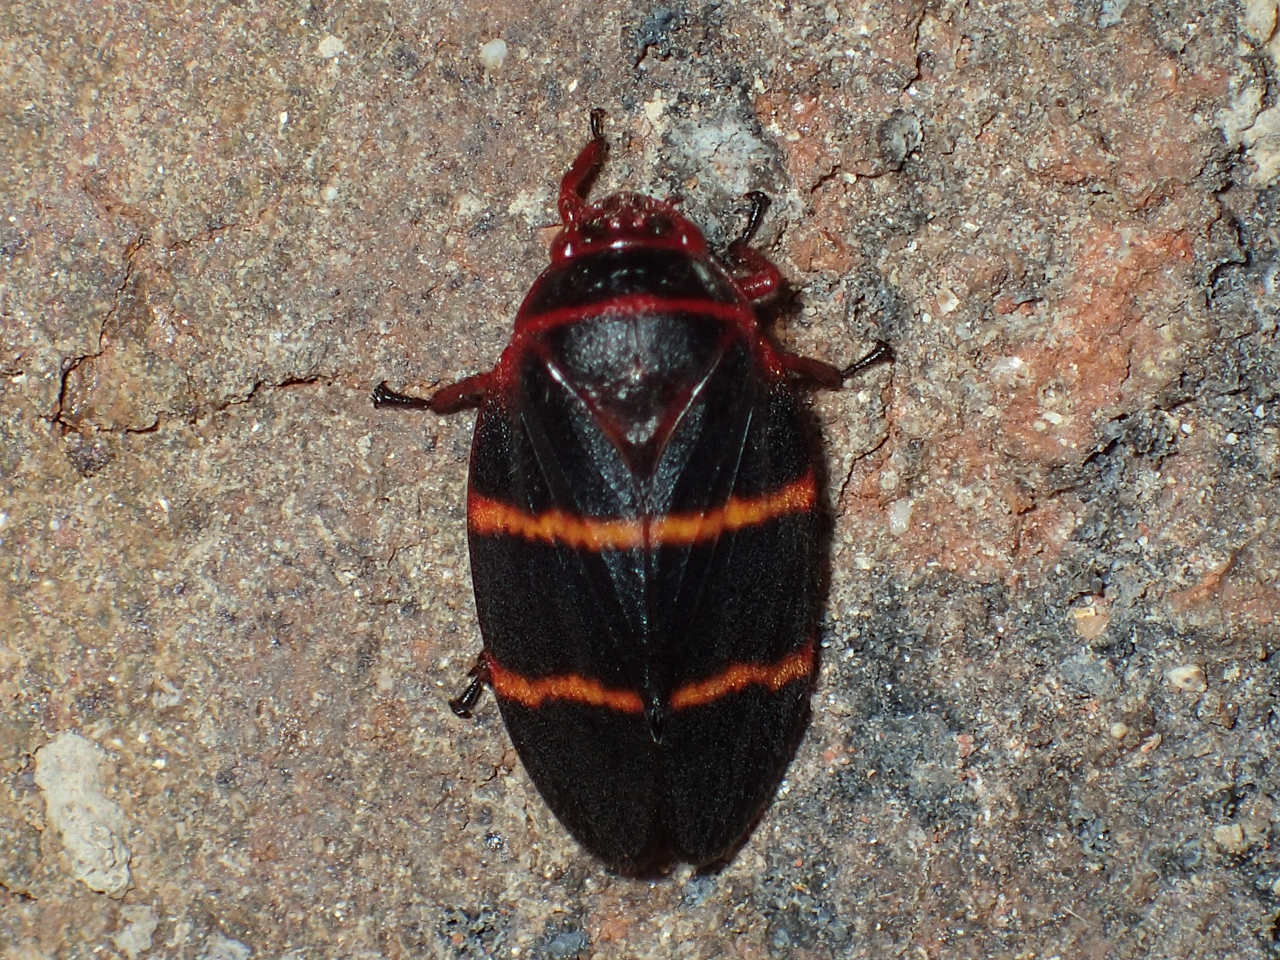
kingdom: Animalia
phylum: Arthropoda
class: Insecta
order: Hemiptera
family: Cercopidae
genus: Prosapia
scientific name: Prosapia bicincta
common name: Twolined spittlebug
